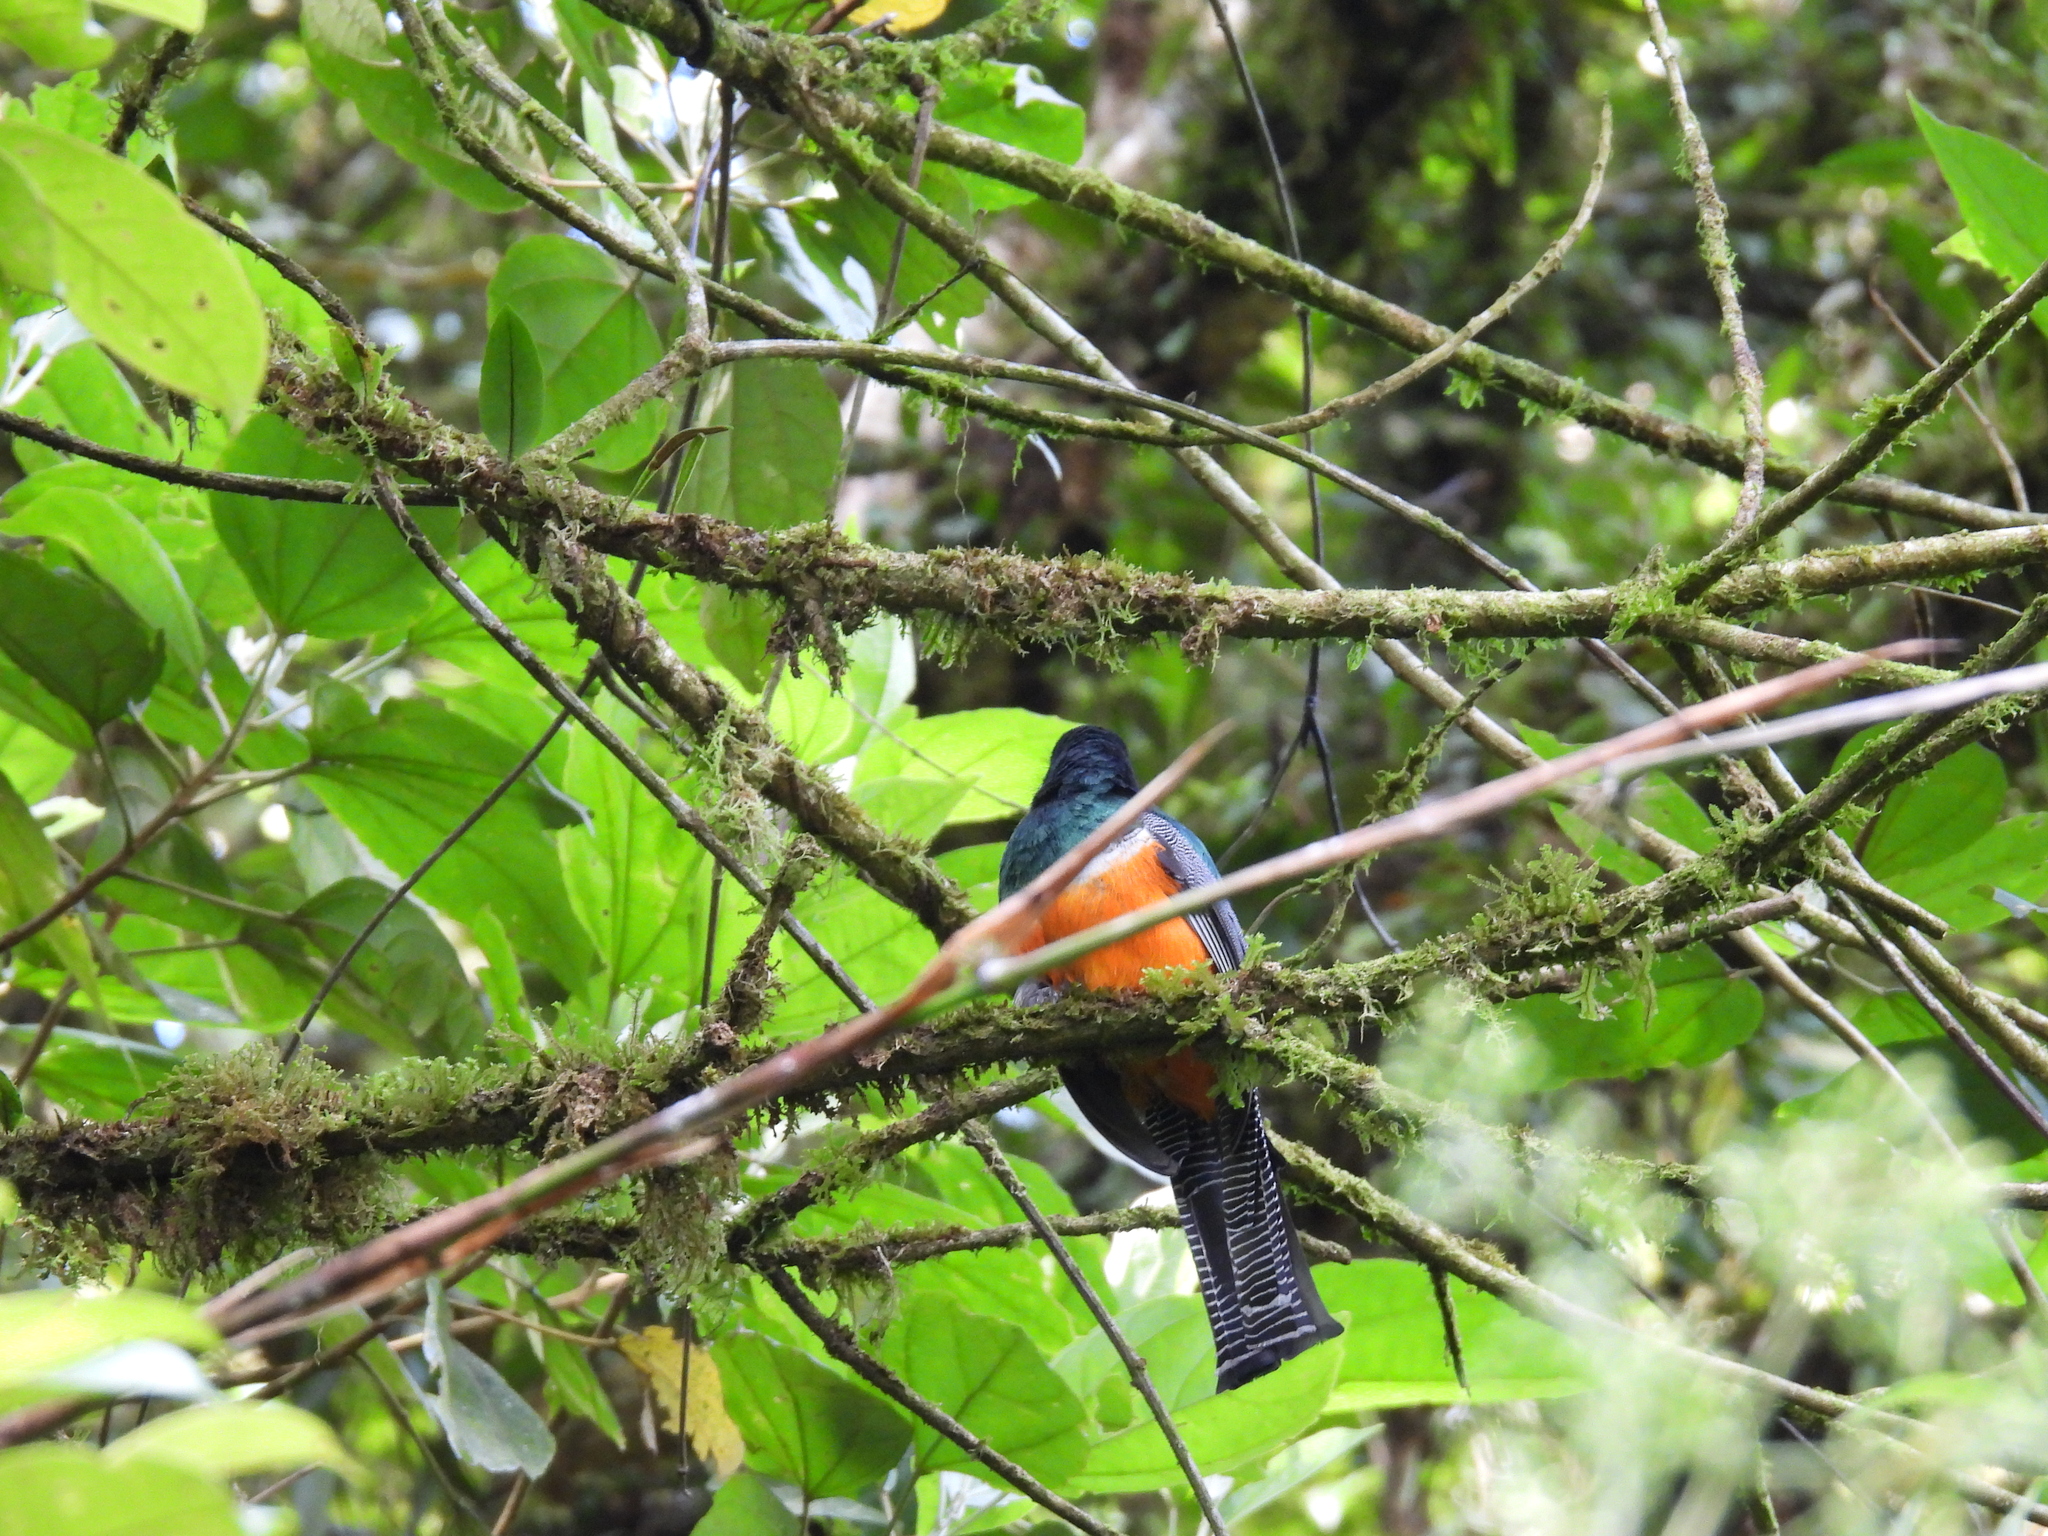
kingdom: Animalia
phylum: Chordata
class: Aves
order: Trogoniformes
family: Trogonidae
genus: Trogon
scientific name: Trogon collaris
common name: Collared trogon
